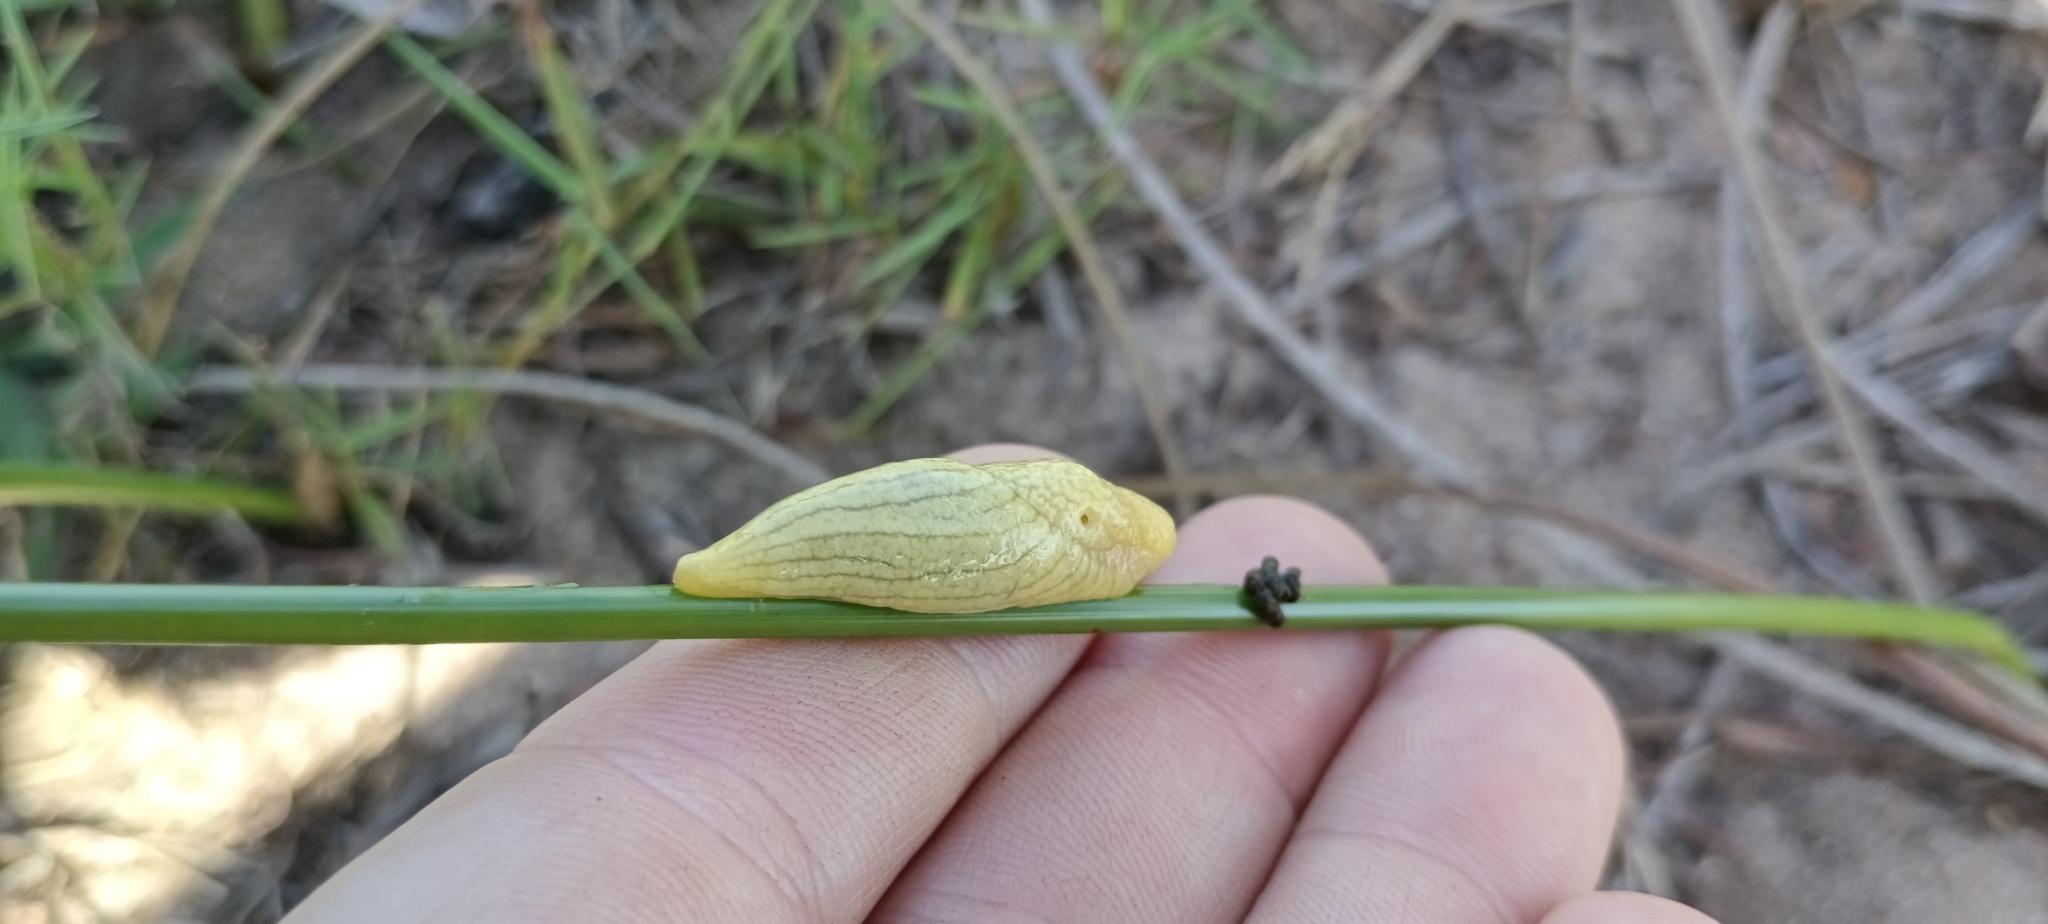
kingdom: Animalia
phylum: Mollusca
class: Gastropoda
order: Stylommatophora
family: Urocyclidae
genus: Elisolimax
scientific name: Elisolimax flavescens
